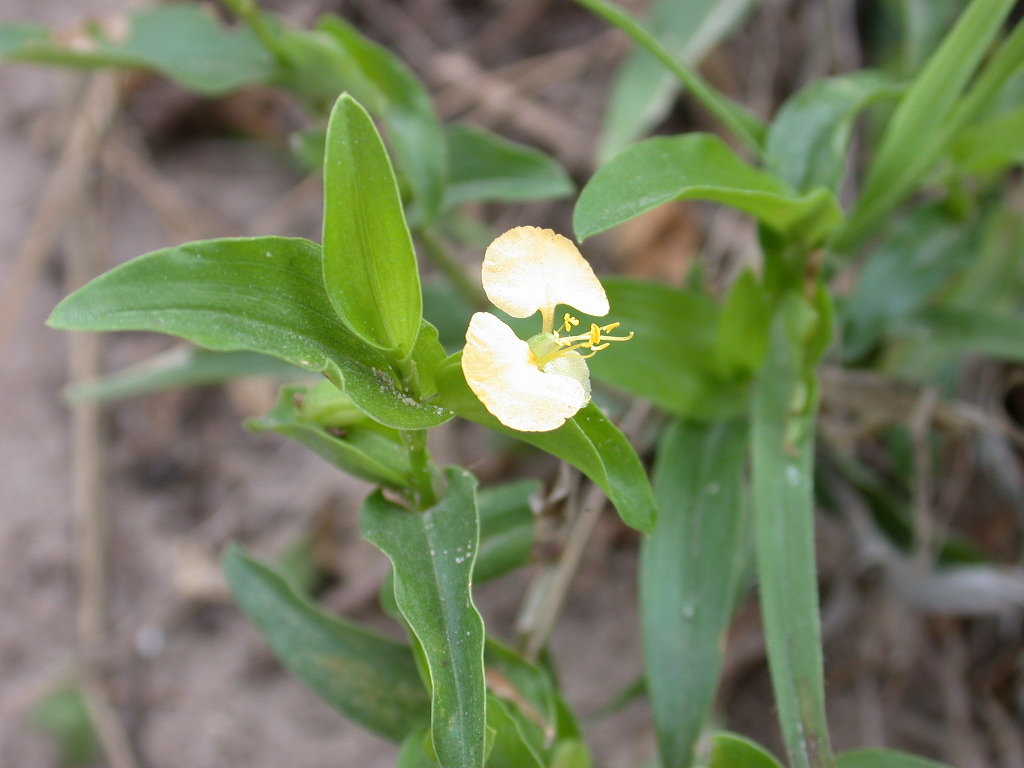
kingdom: Plantae
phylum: Tracheophyta
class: Liliopsida
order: Commelinales
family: Commelinaceae
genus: Commelina
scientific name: Commelina africana
